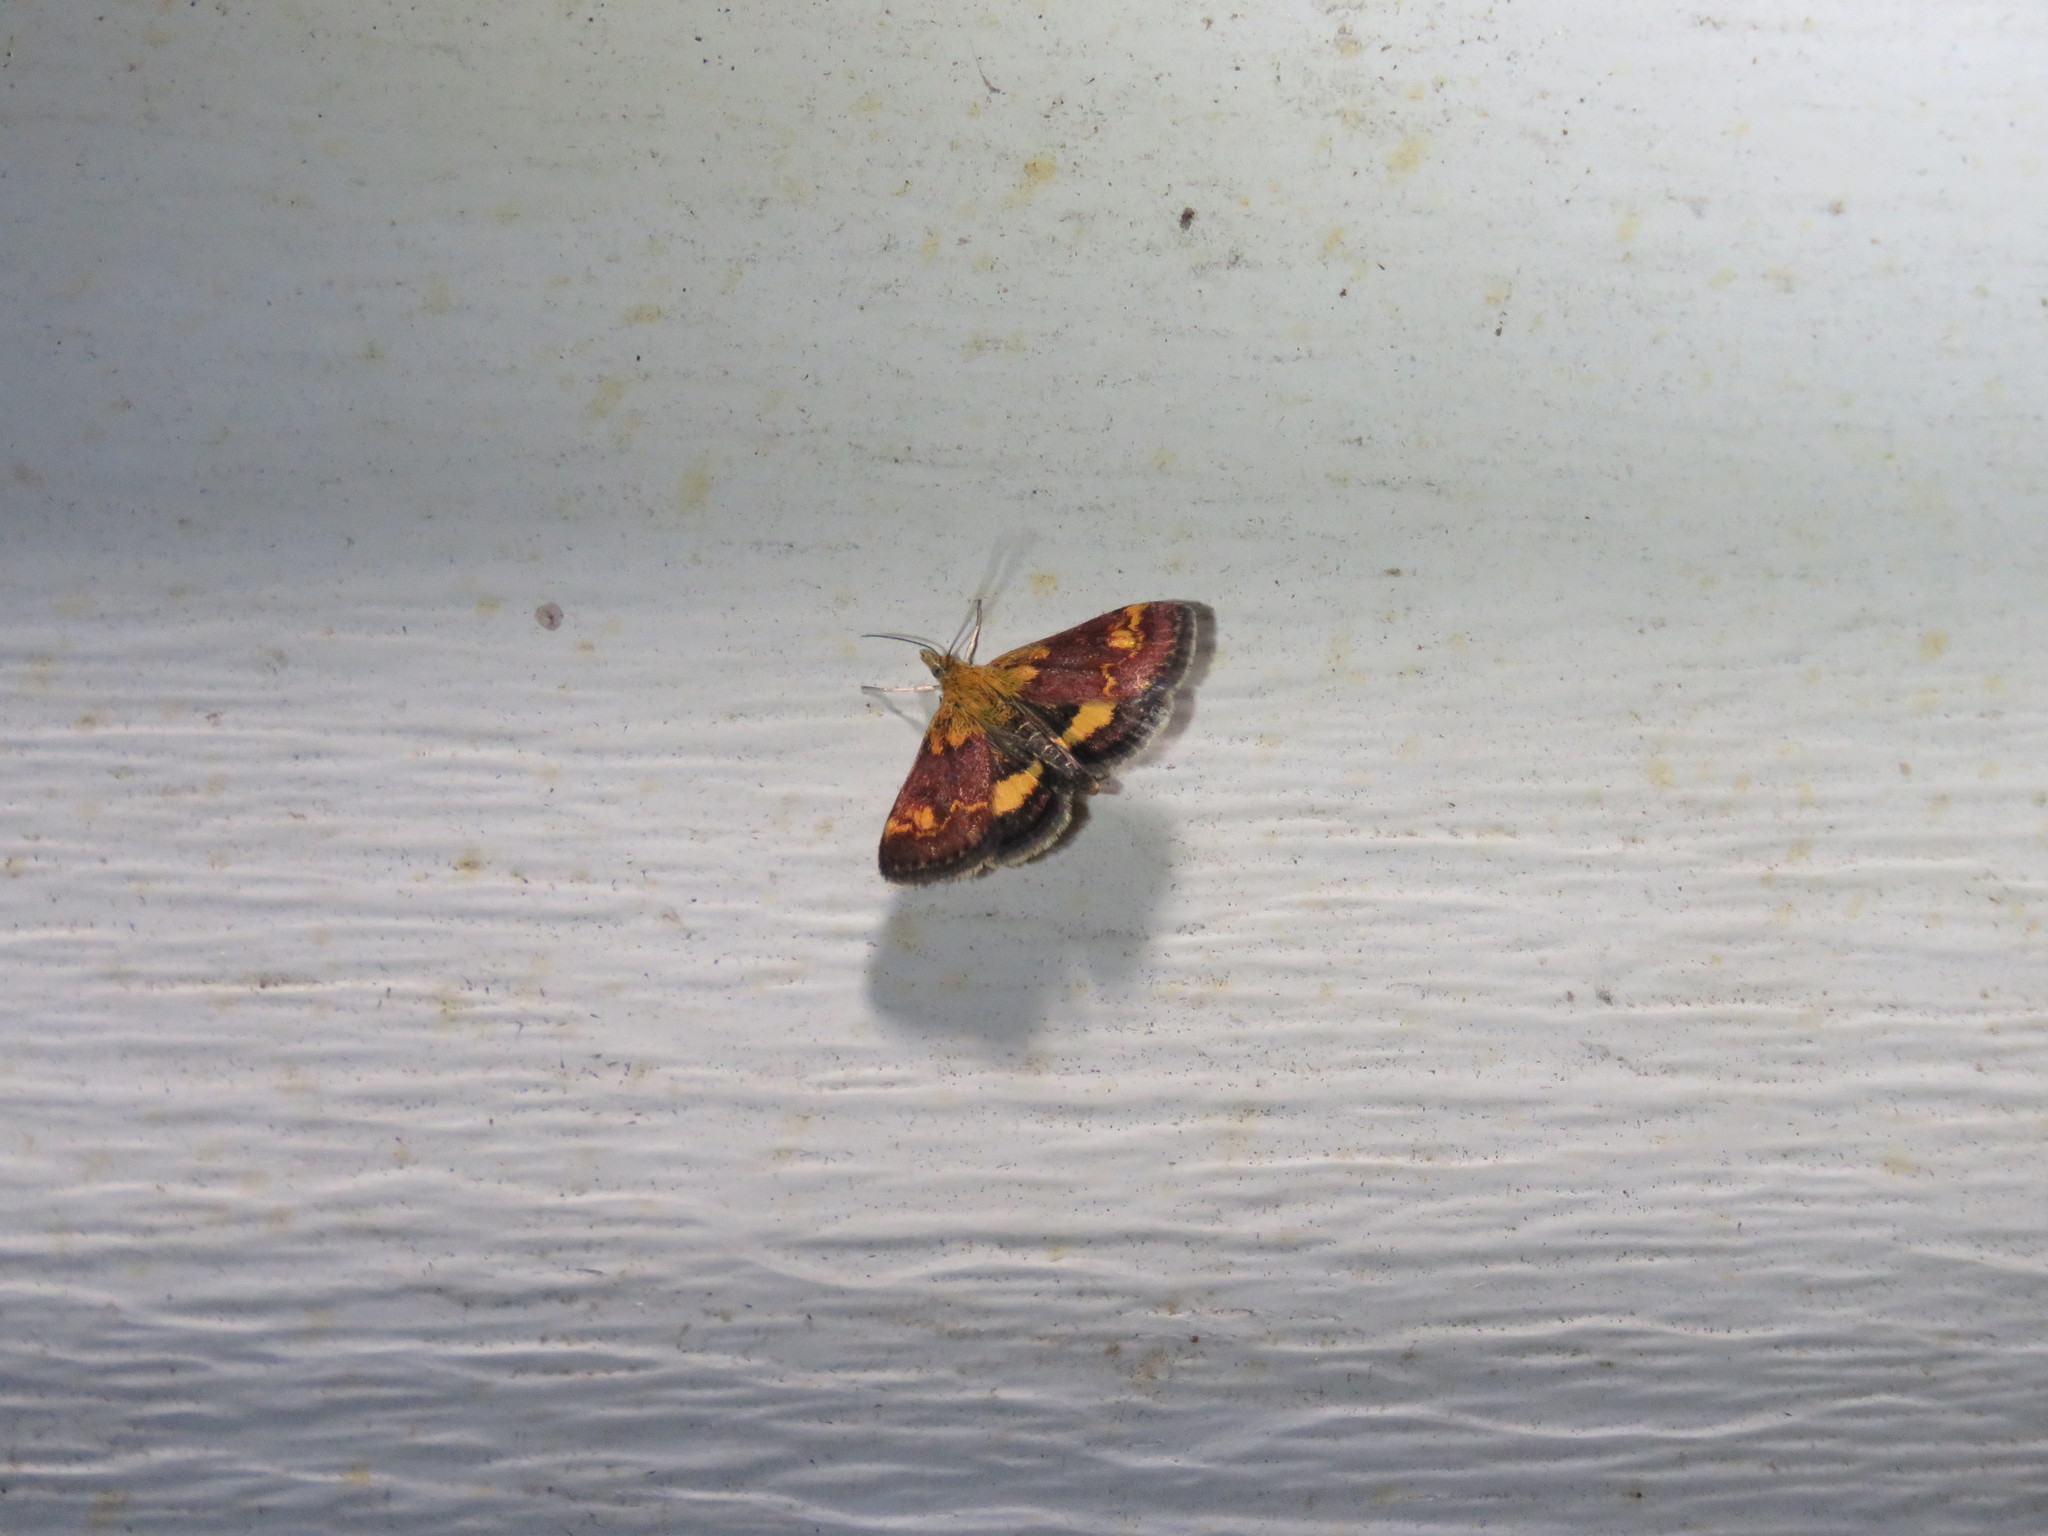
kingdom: Animalia
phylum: Arthropoda
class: Insecta
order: Lepidoptera
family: Crambidae
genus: Pyrausta
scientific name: Pyrausta orphisalis
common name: Orange mint moth
